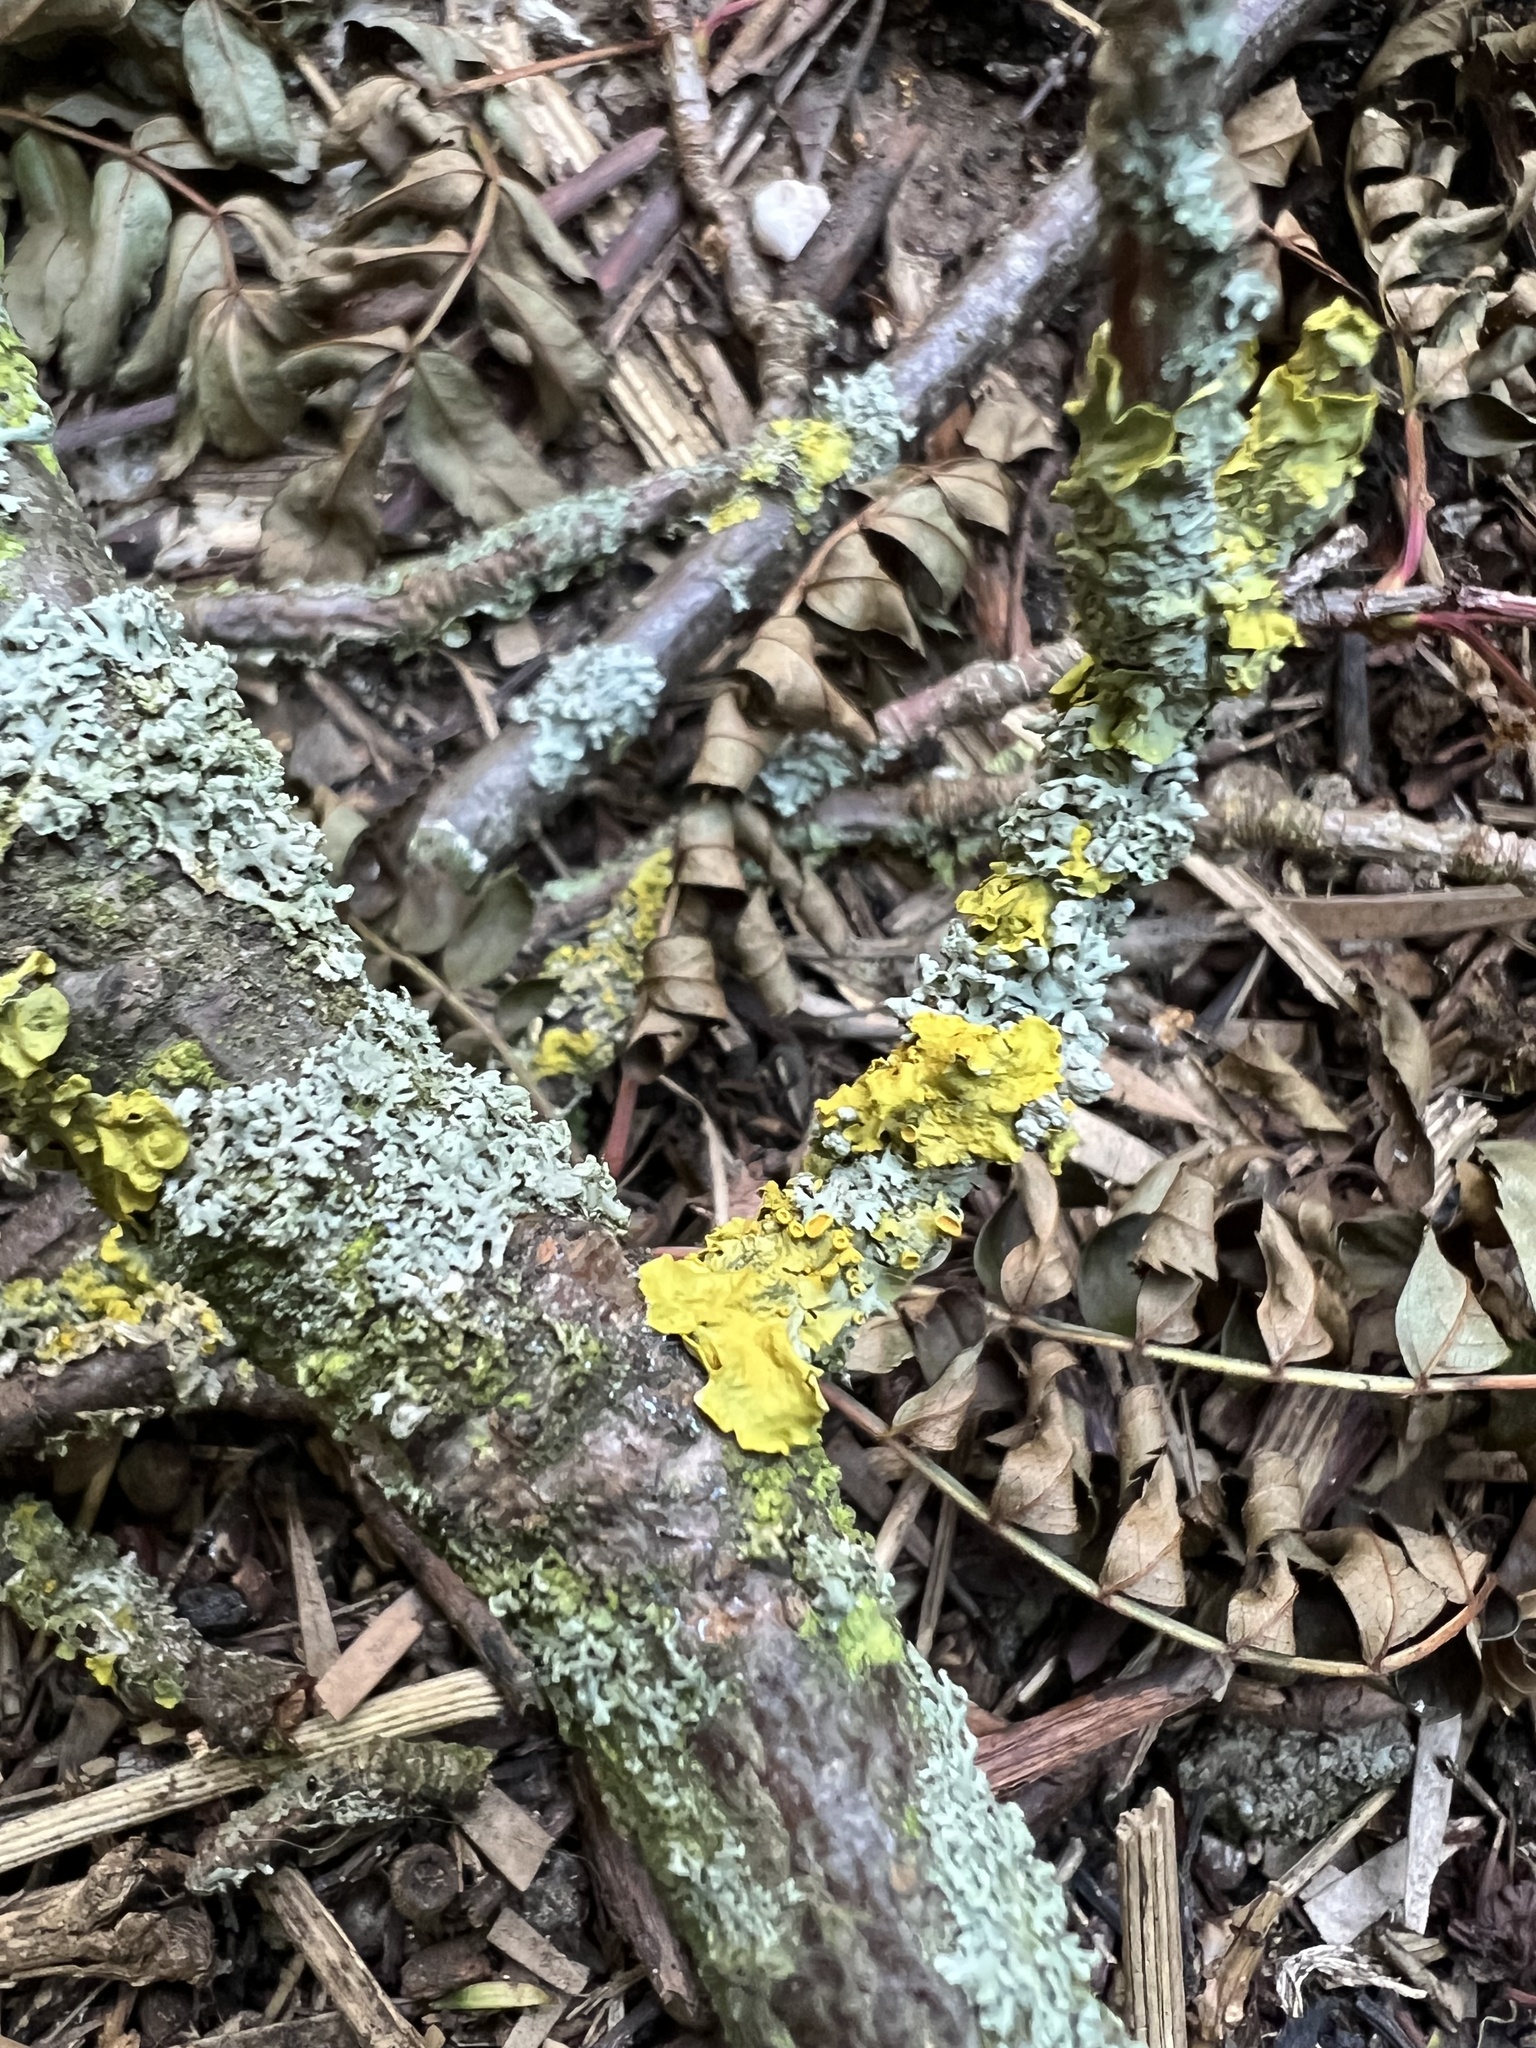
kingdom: Fungi
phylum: Ascomycota
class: Lecanoromycetes
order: Teloschistales
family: Teloschistaceae
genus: Xanthoria
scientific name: Xanthoria parietina
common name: Common orange lichen
